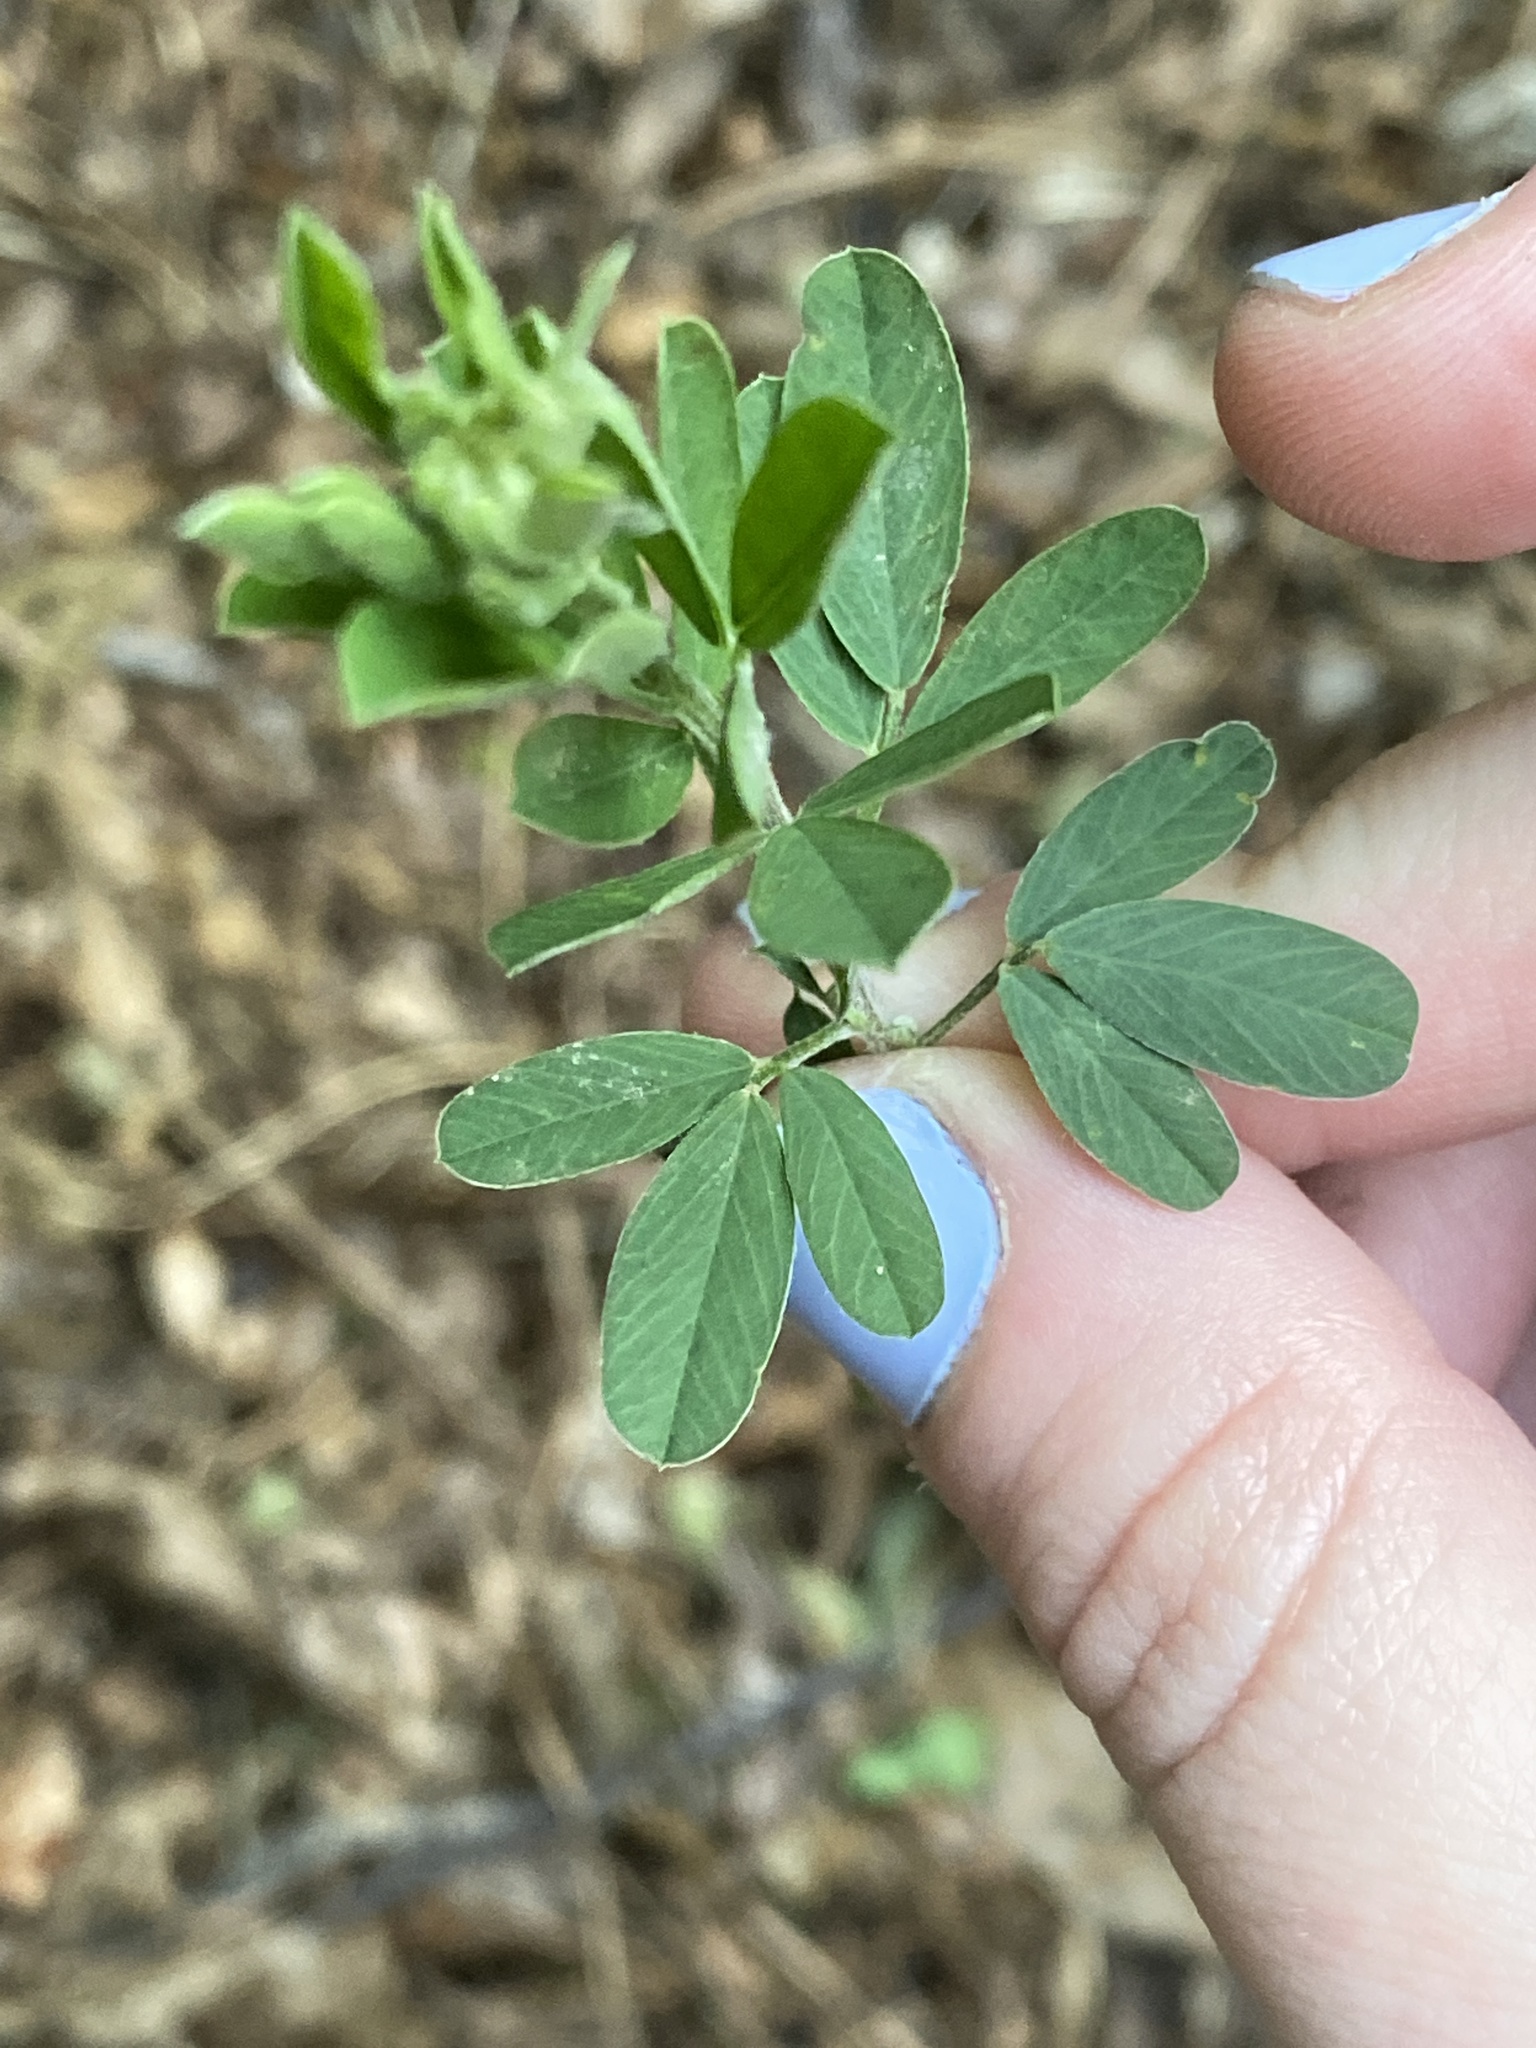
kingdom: Plantae
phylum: Tracheophyta
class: Magnoliopsida
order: Fabales
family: Fabaceae
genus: Lespedeza
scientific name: Lespedeza cuneata
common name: Chinese bush-clover
